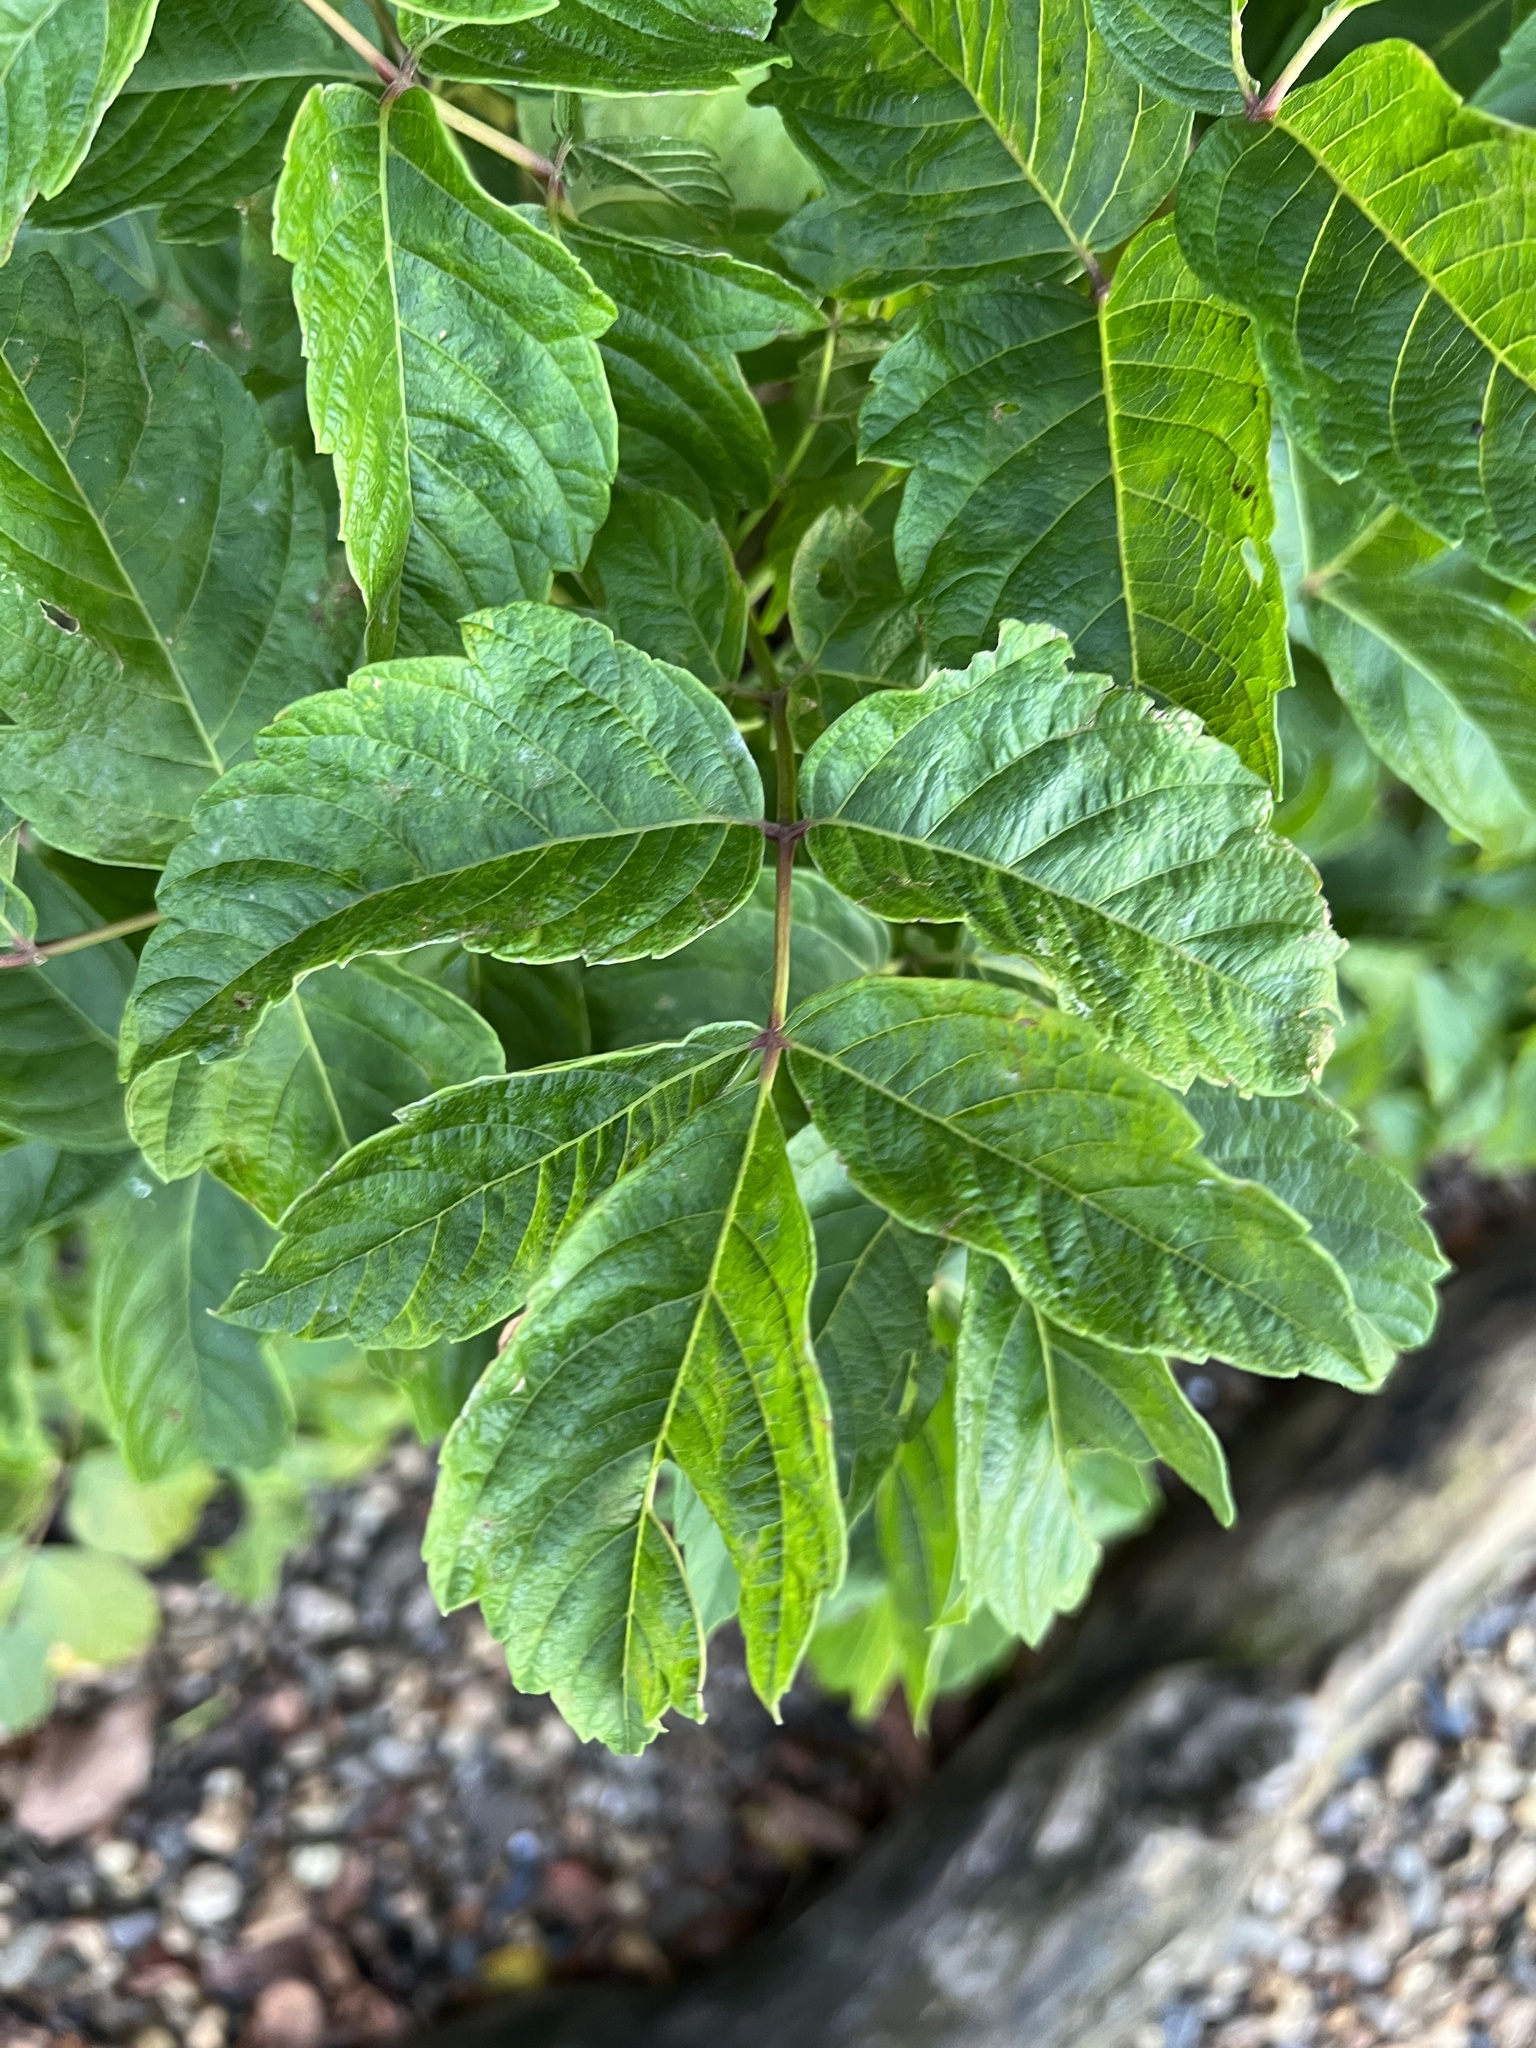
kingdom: Plantae
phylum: Tracheophyta
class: Magnoliopsida
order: Sapindales
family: Sapindaceae
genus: Acer
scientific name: Acer negundo
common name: Ashleaf maple
